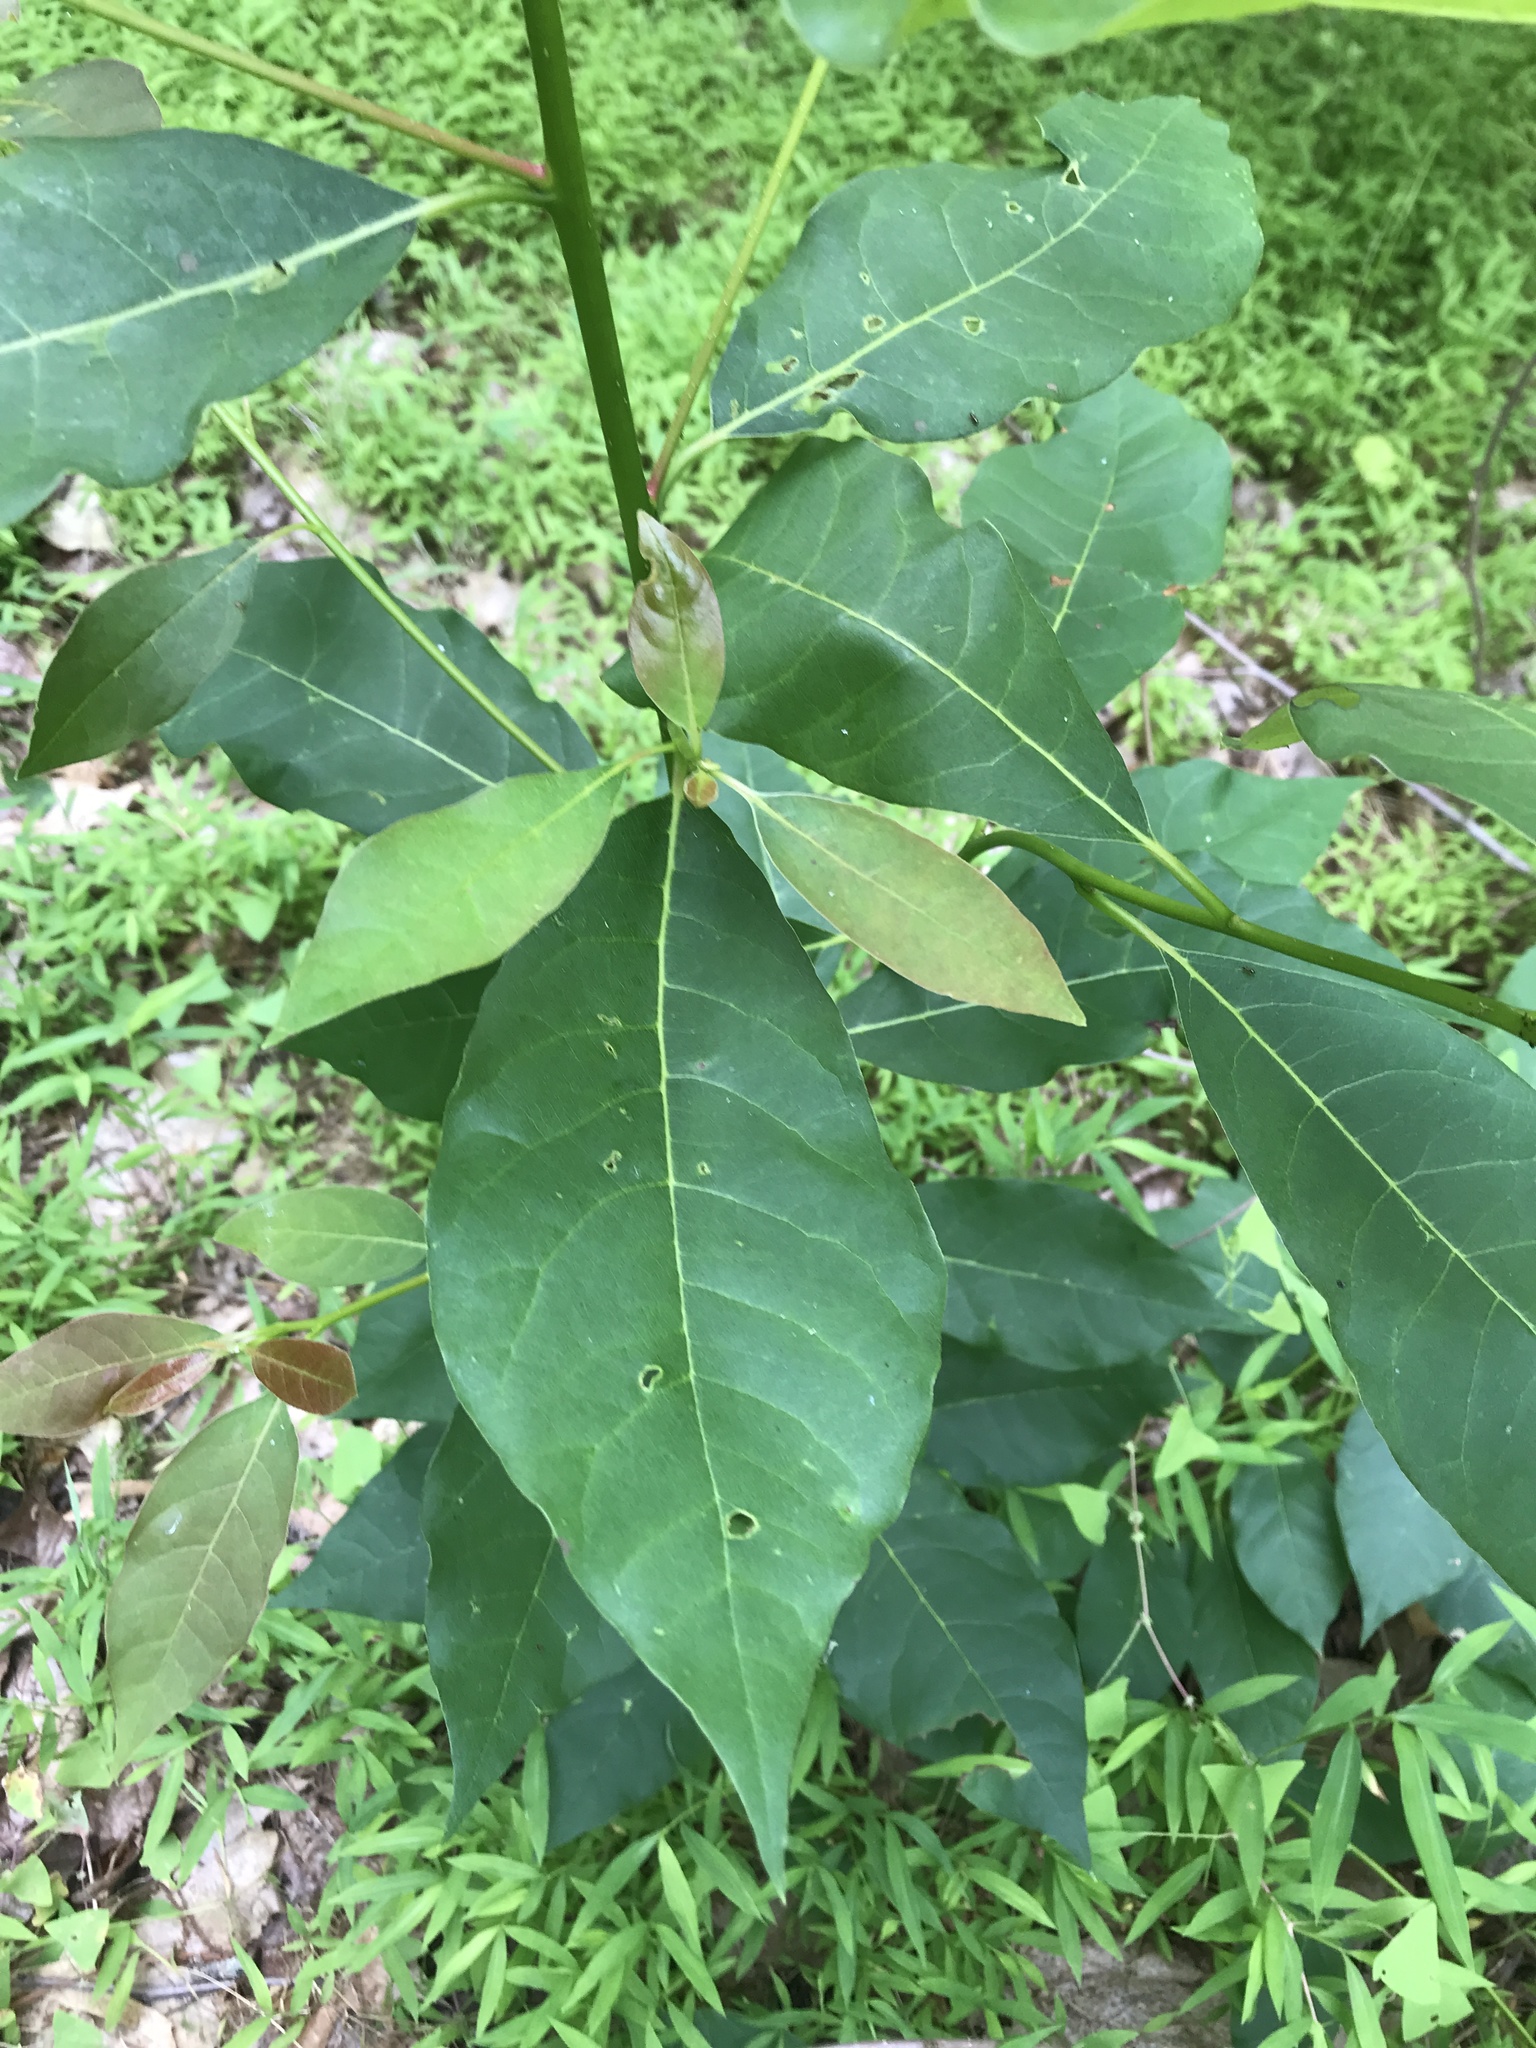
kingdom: Plantae
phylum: Tracheophyta
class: Magnoliopsida
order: Cornales
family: Nyssaceae
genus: Nyssa
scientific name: Nyssa sylvatica
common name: Black tupelo
